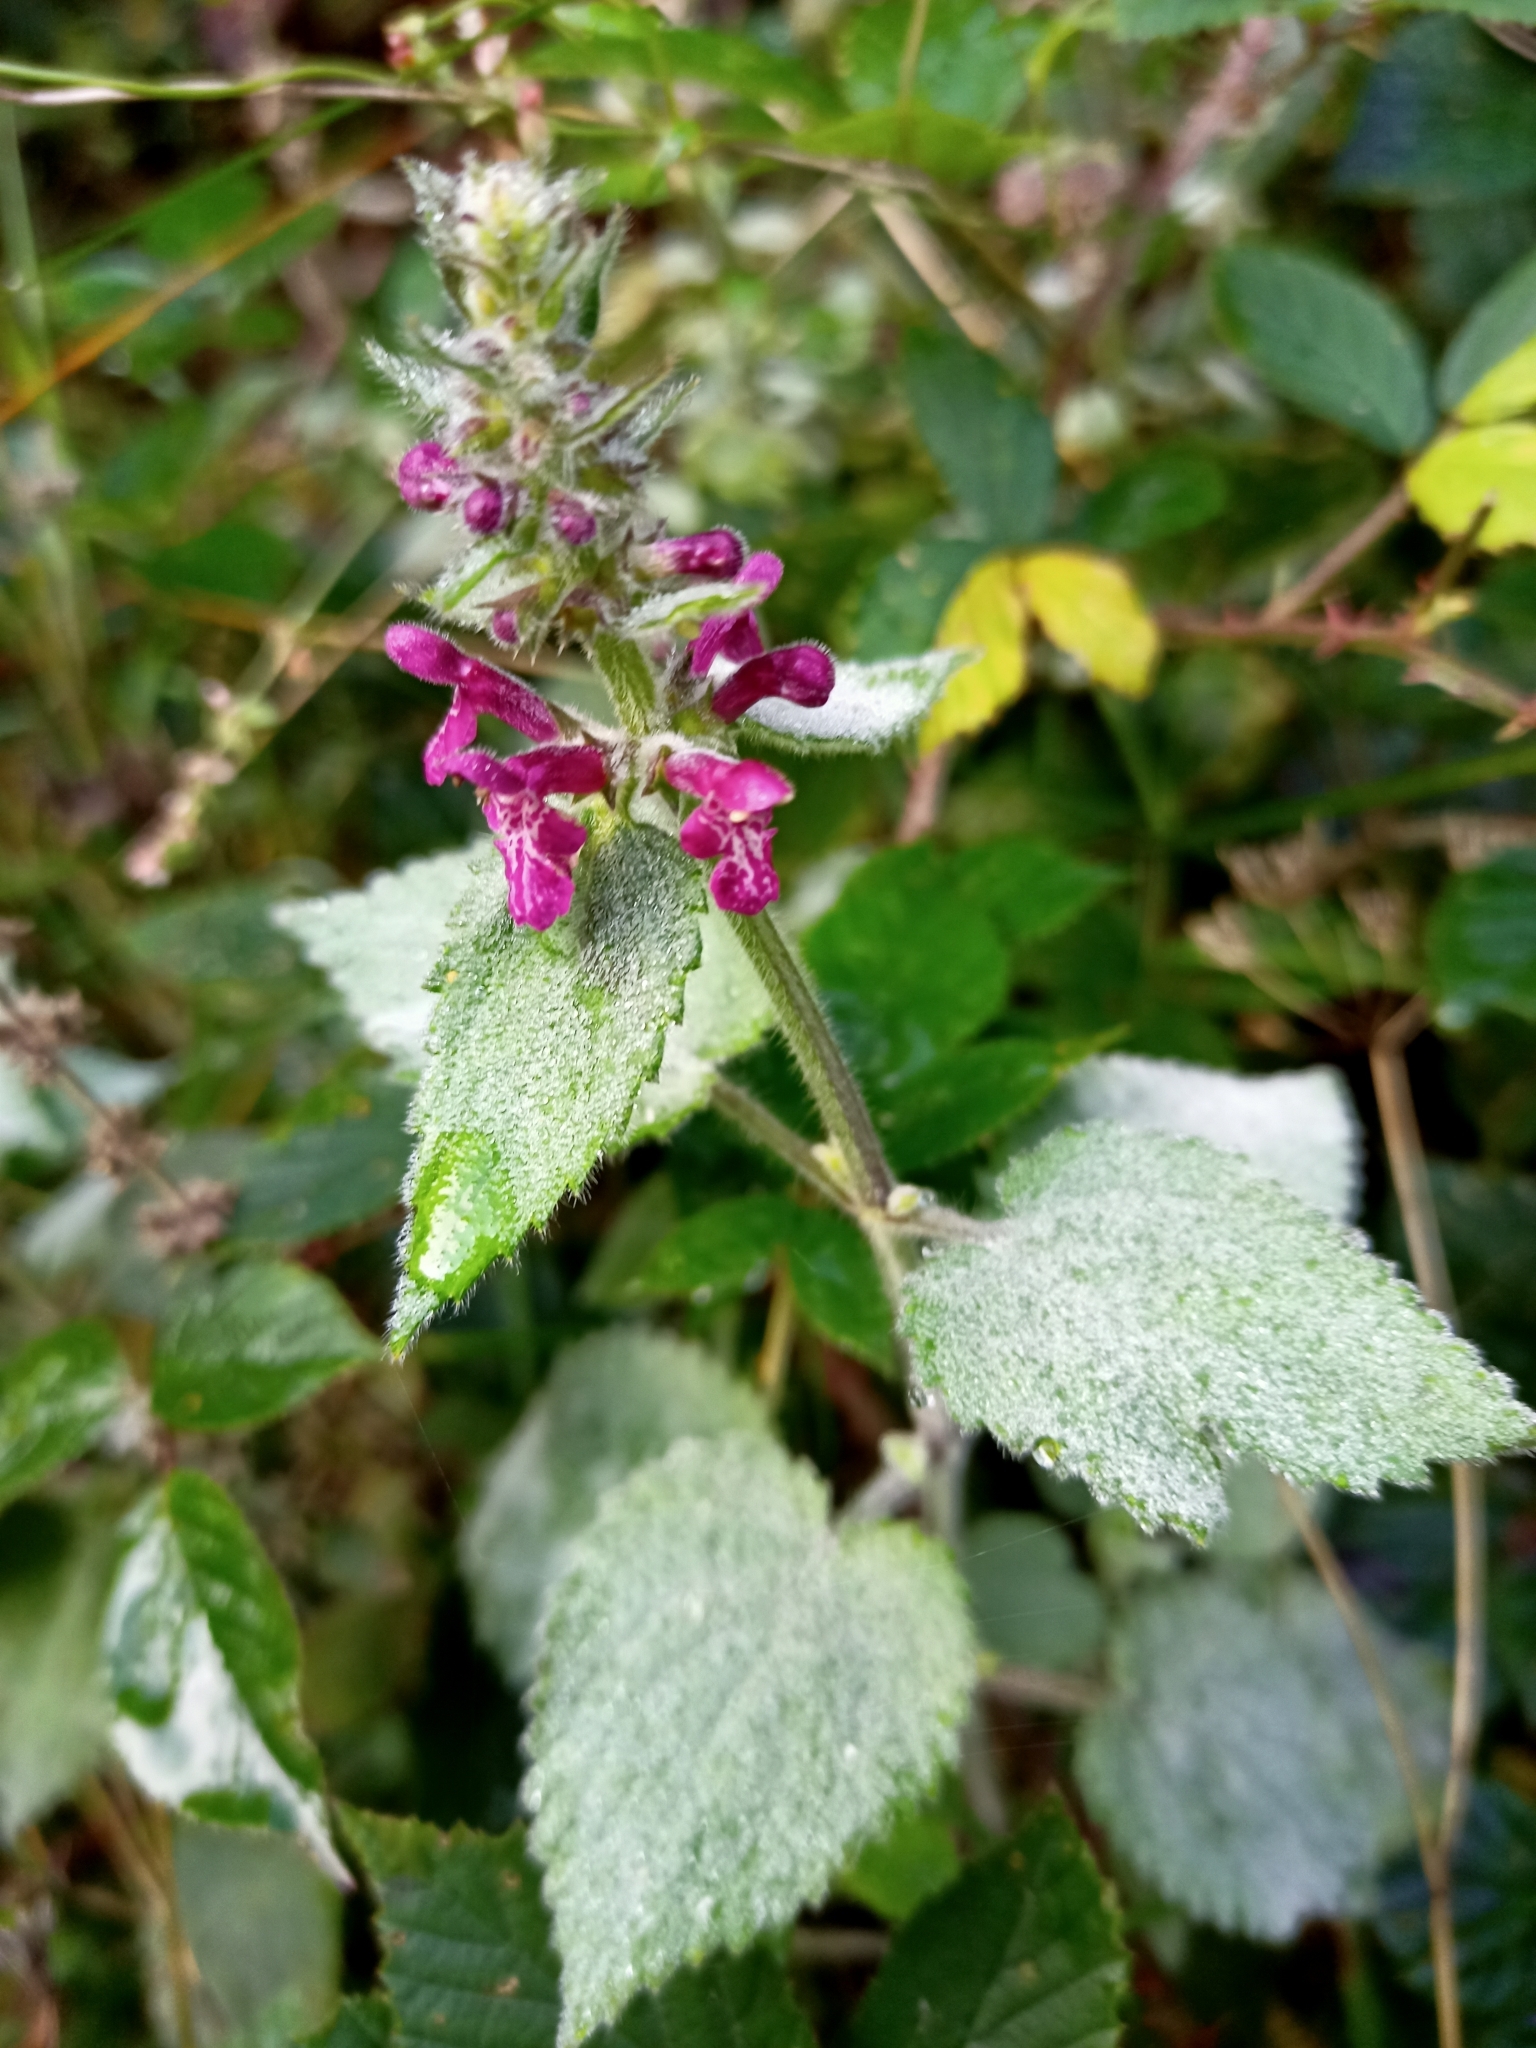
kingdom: Plantae
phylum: Tracheophyta
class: Magnoliopsida
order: Lamiales
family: Lamiaceae
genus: Stachys
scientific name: Stachys sylvatica
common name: Hedge woundwort
